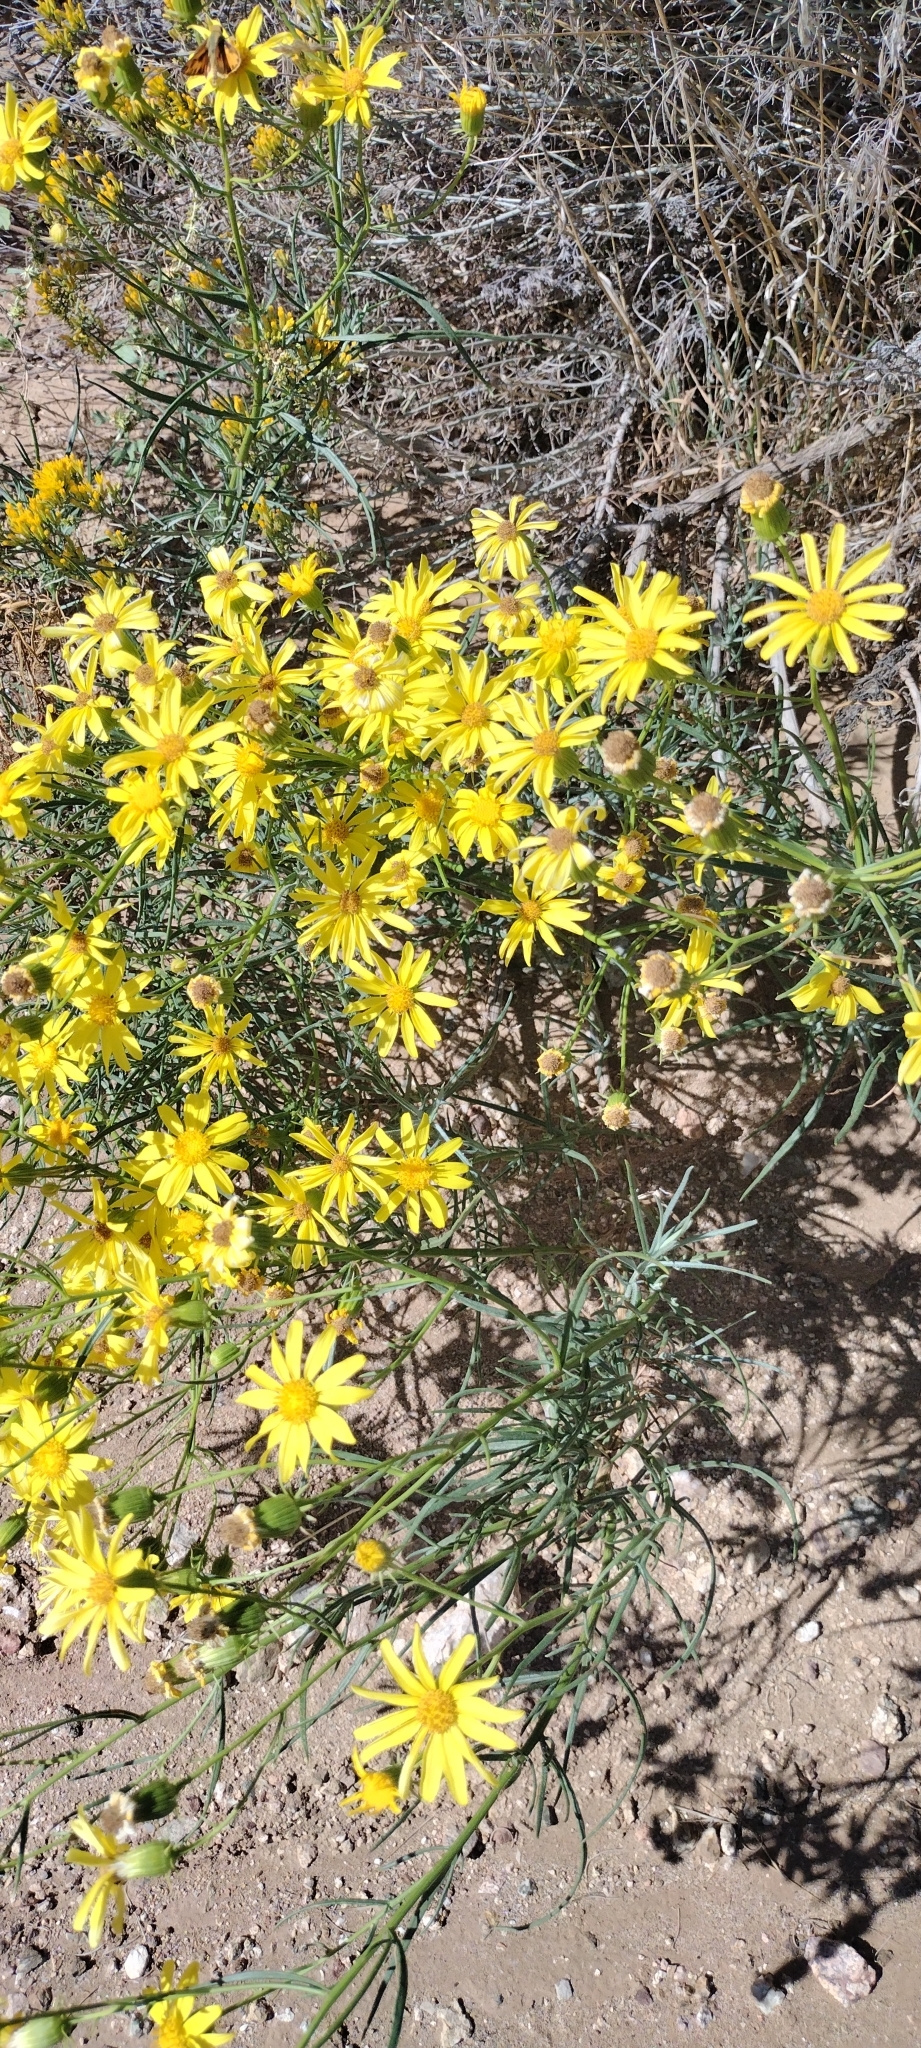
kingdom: Plantae
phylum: Tracheophyta
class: Magnoliopsida
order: Asterales
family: Asteraceae
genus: Senecio
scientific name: Senecio flaccidus
